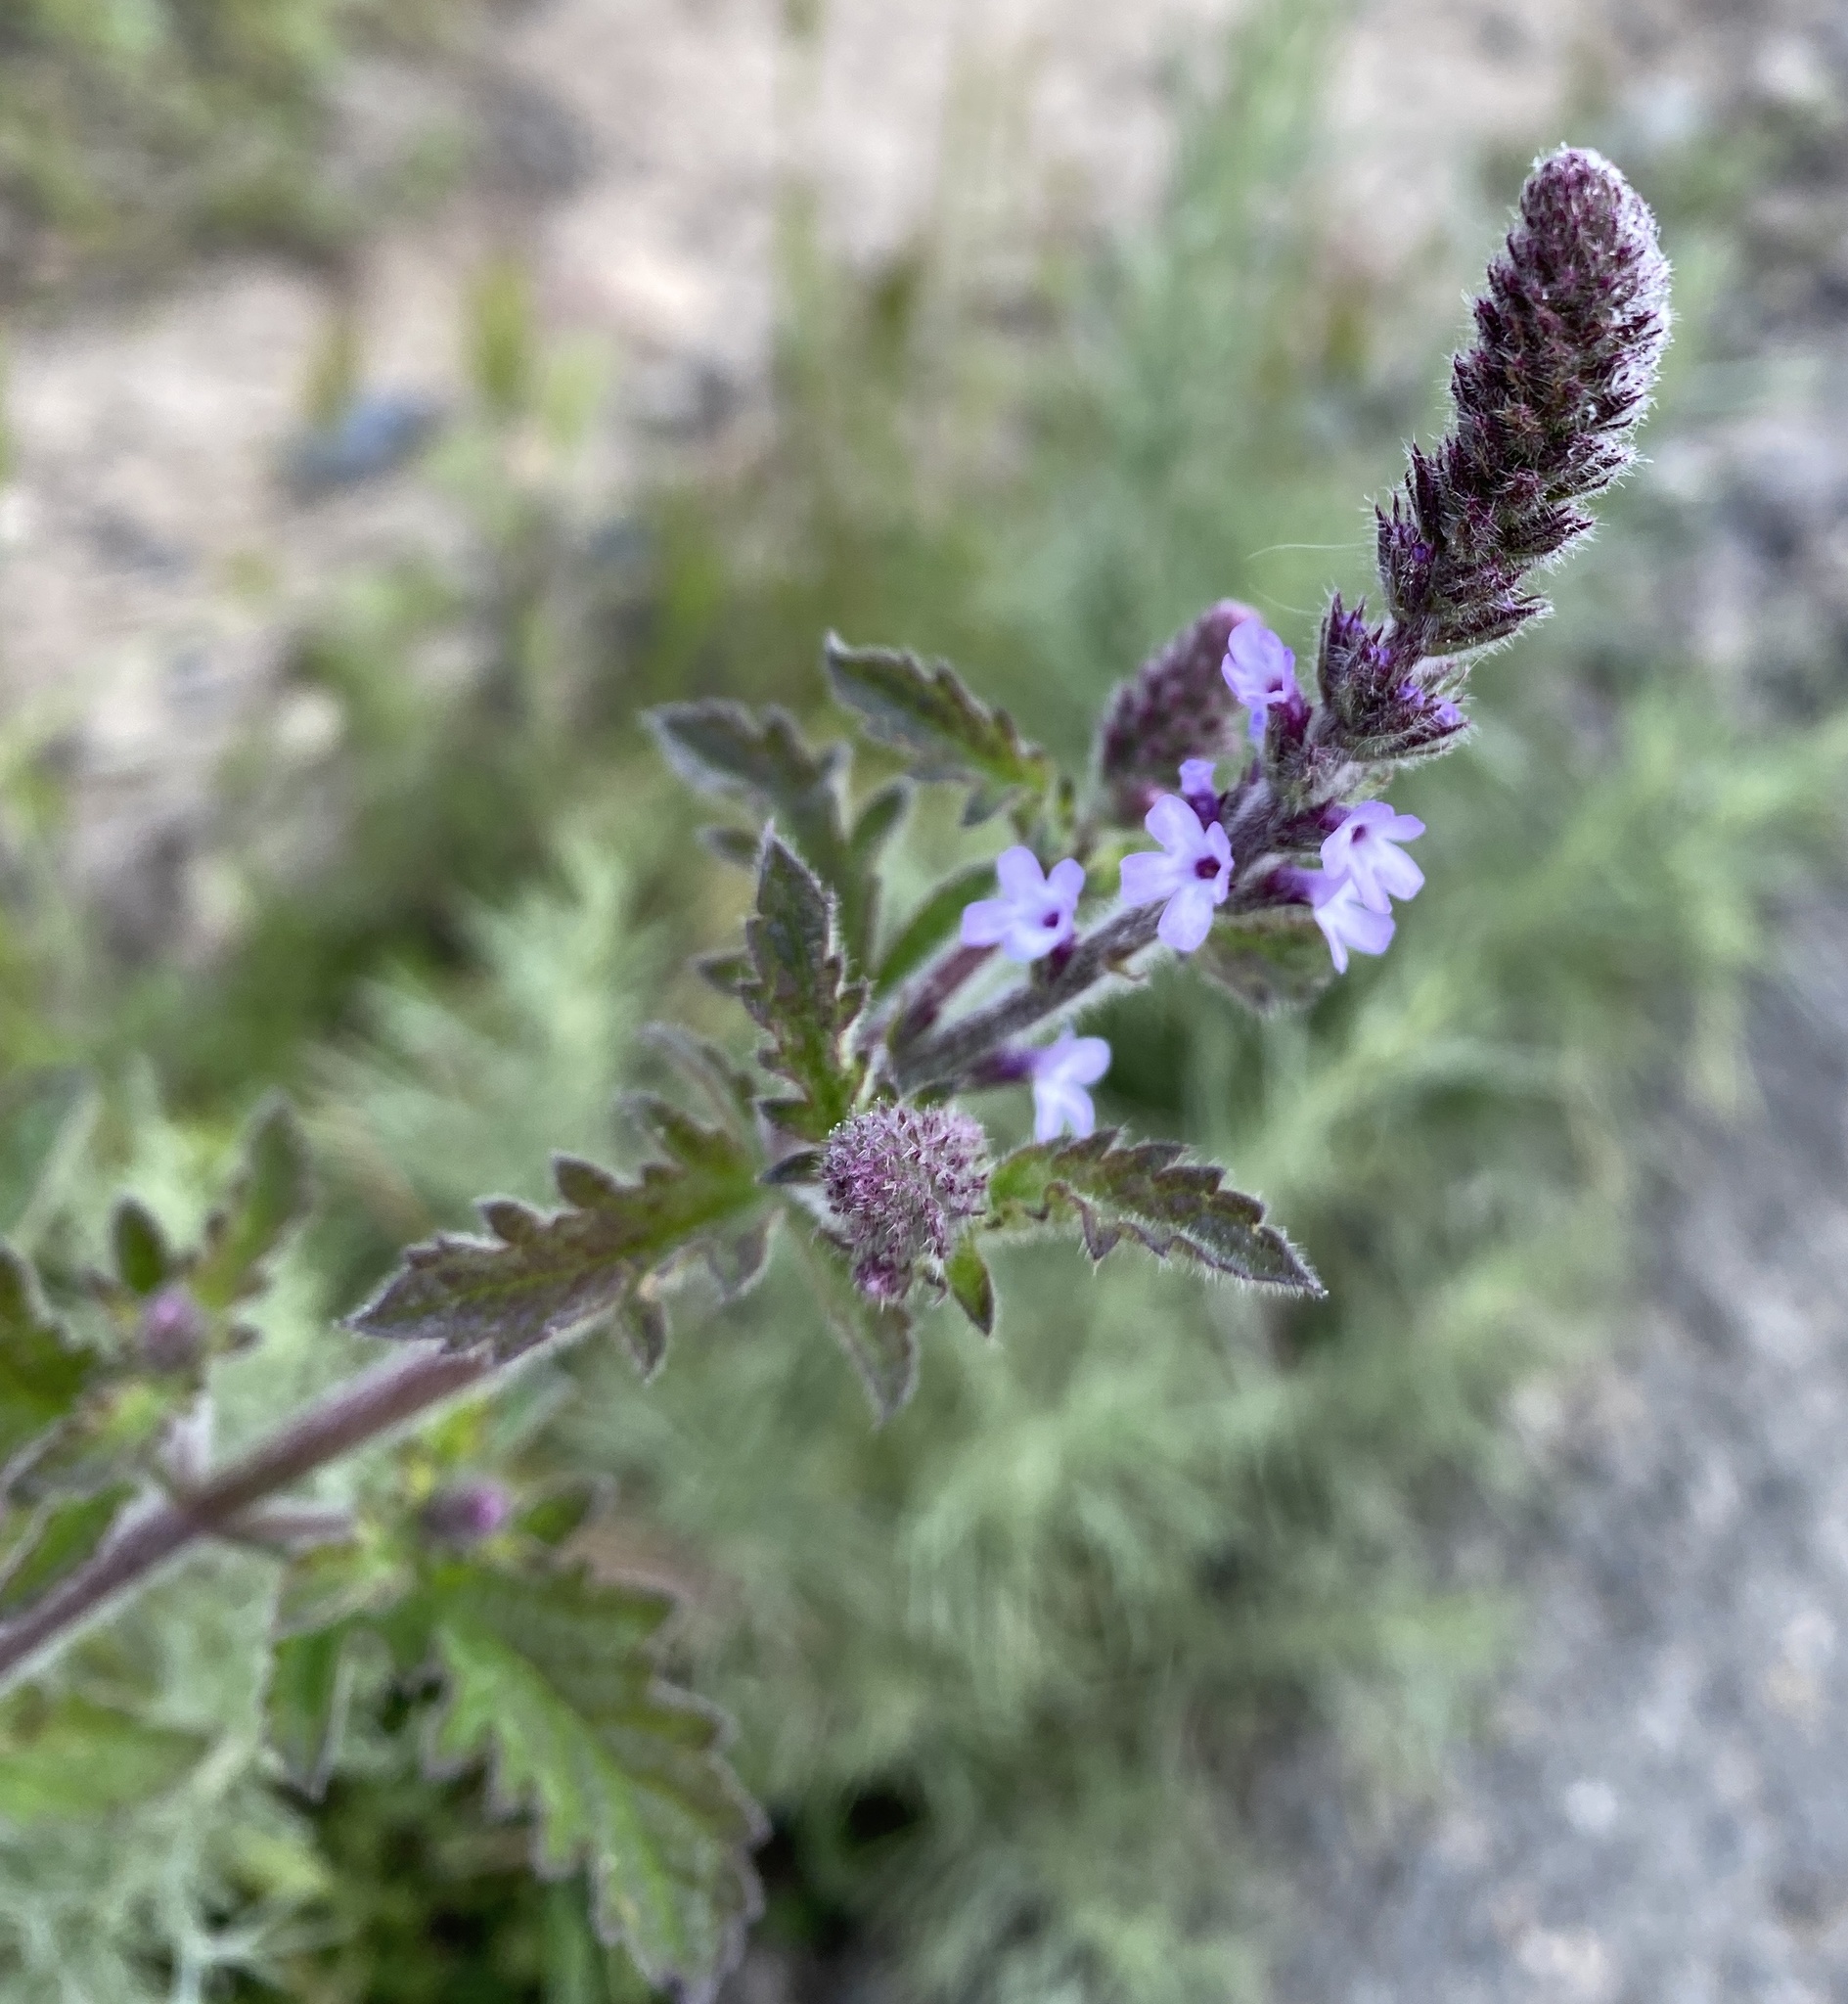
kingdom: Plantae
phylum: Tracheophyta
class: Magnoliopsida
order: Lamiales
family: Verbenaceae
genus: Verbena
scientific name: Verbena lasiostachys
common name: Vervain
